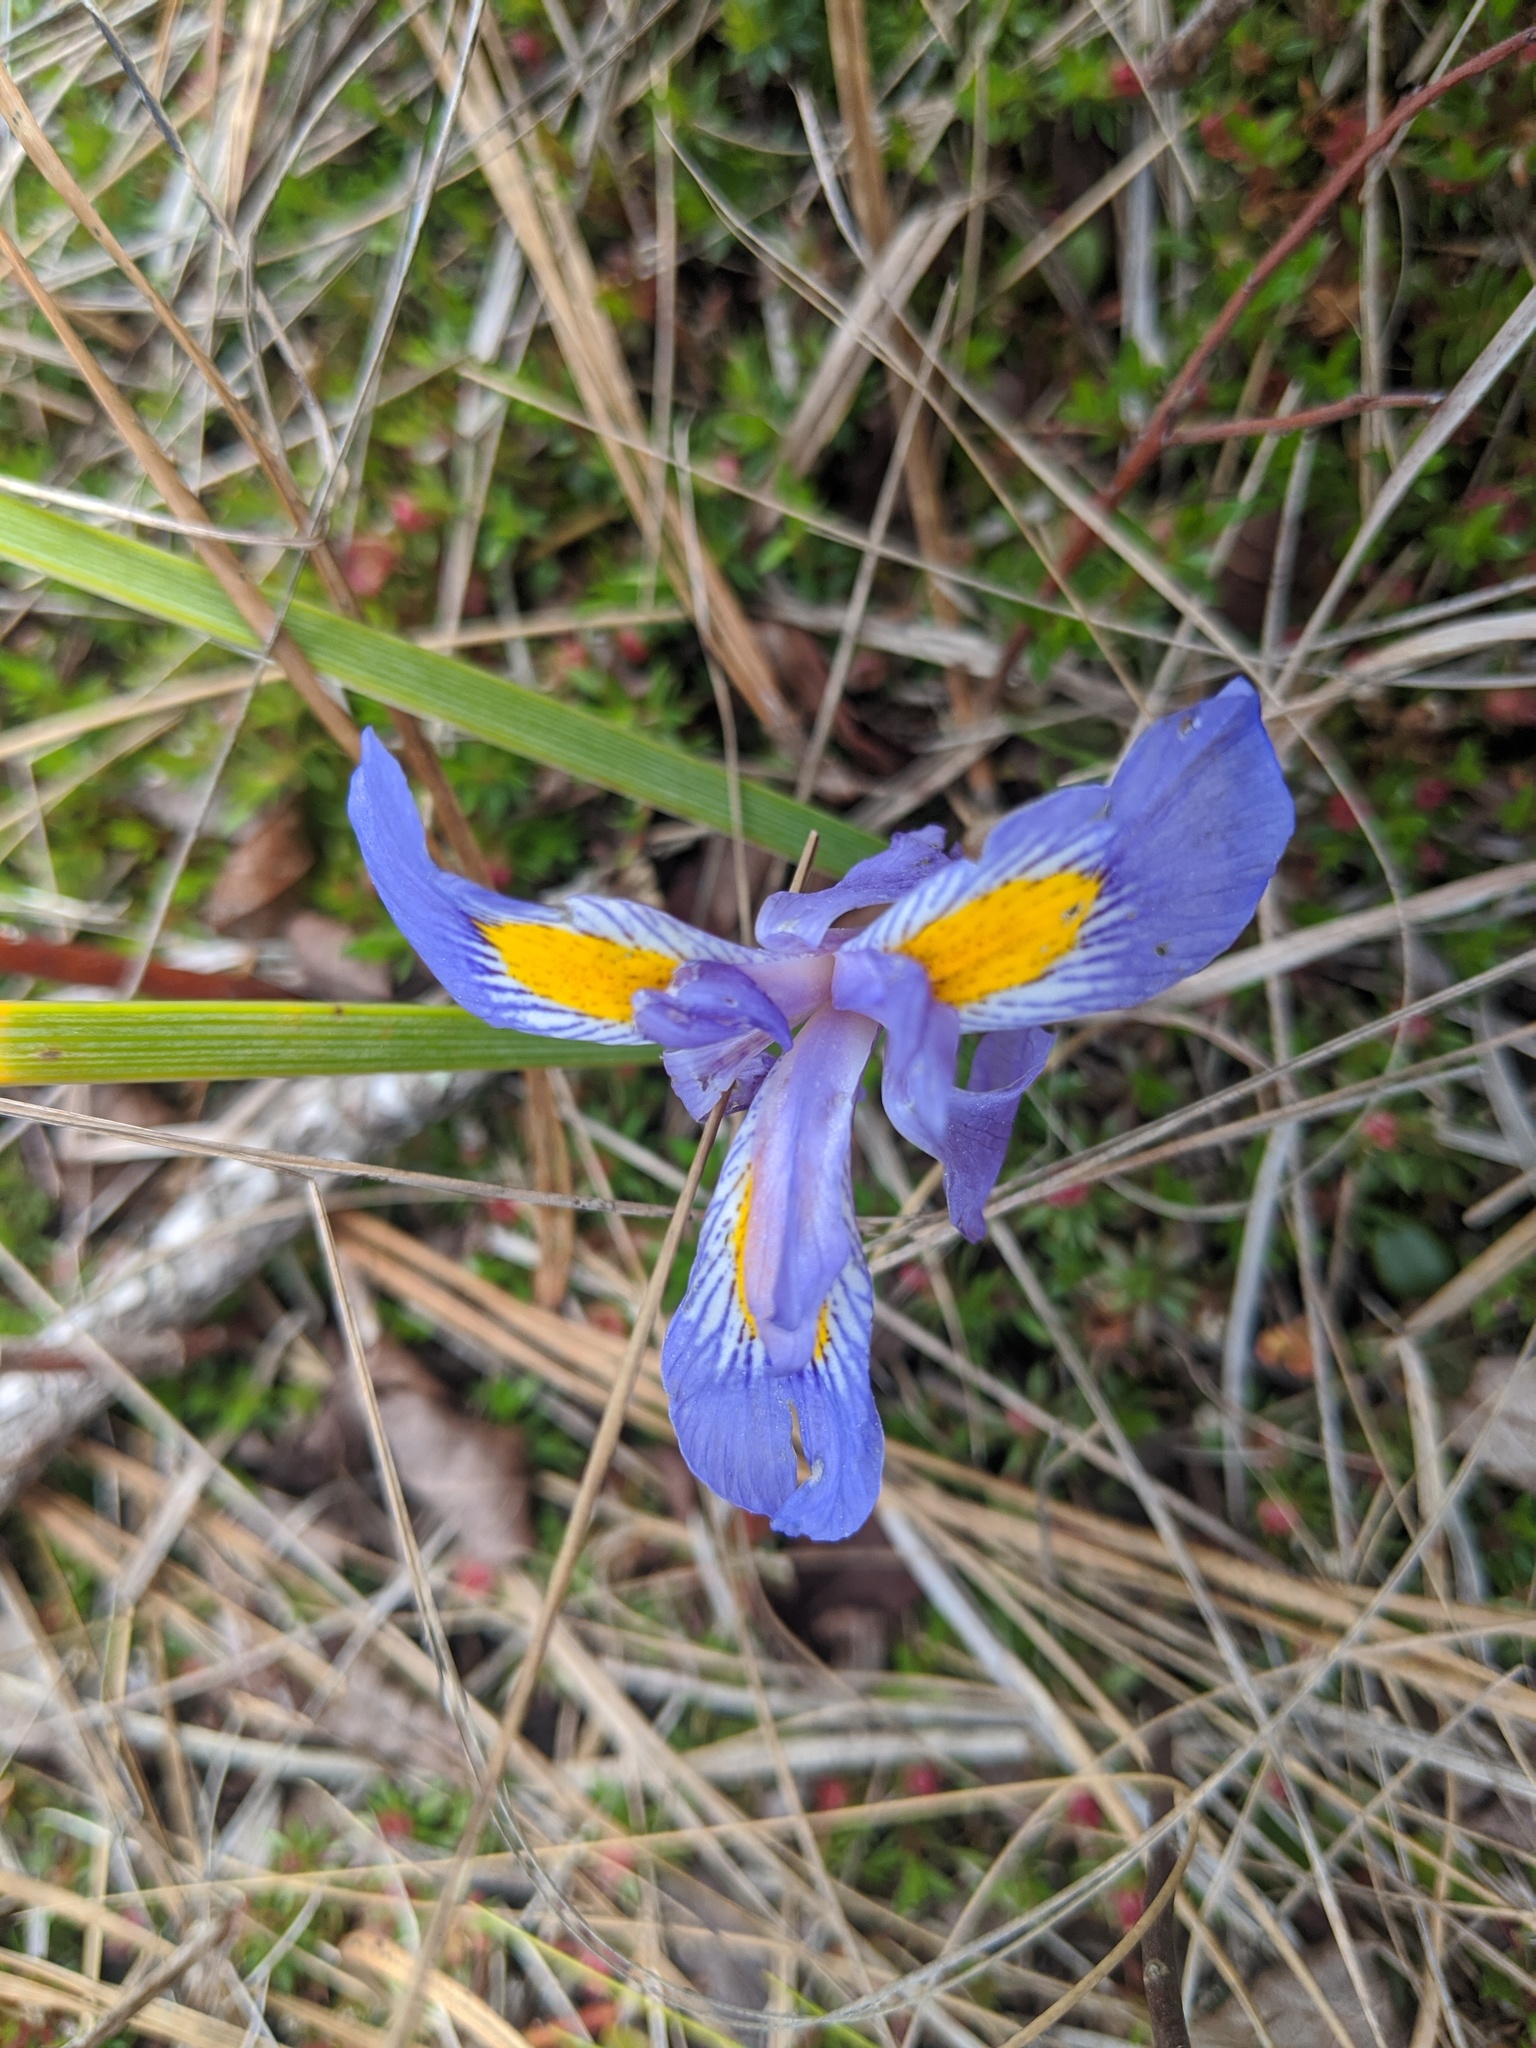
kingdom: Plantae
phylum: Tracheophyta
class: Liliopsida
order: Asparagales
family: Iridaceae
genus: Iris
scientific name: Iris verna
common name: Dwarf iris
